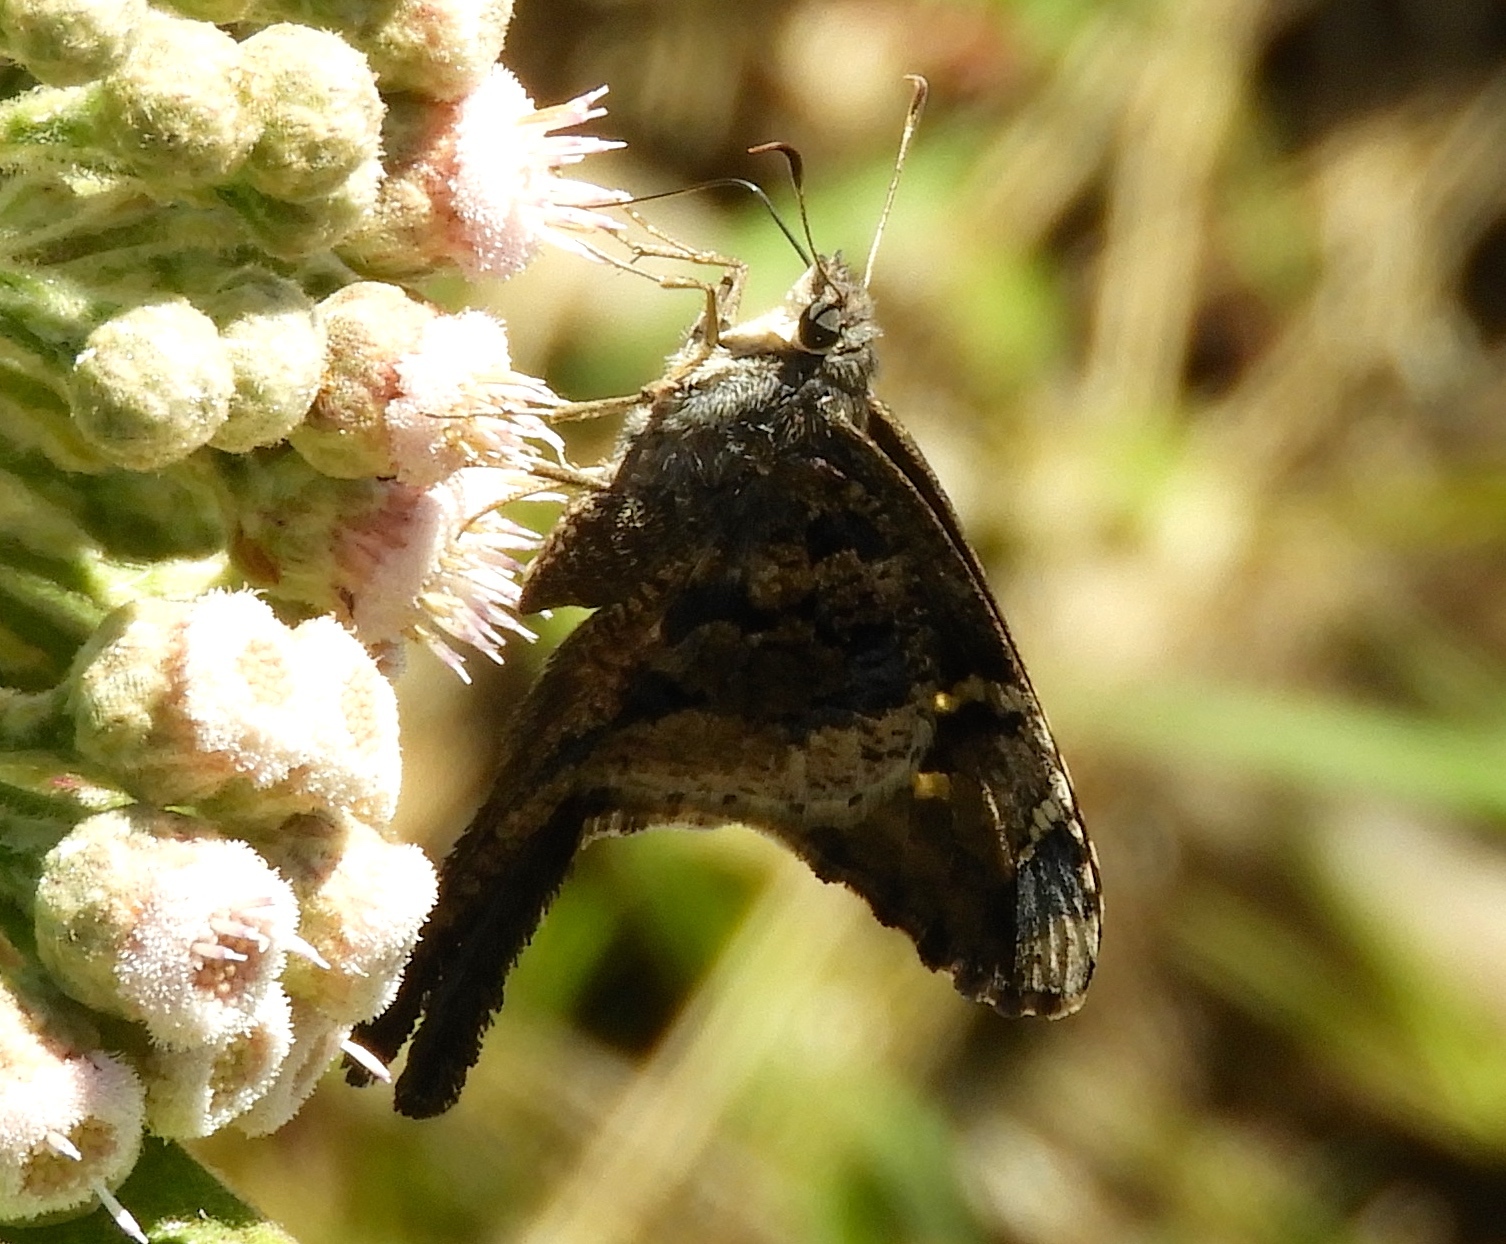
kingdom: Animalia
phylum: Arthropoda
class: Insecta
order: Lepidoptera
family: Hesperiidae
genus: Typhedanus
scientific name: Typhedanus undulatus
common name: Mottled longtail
